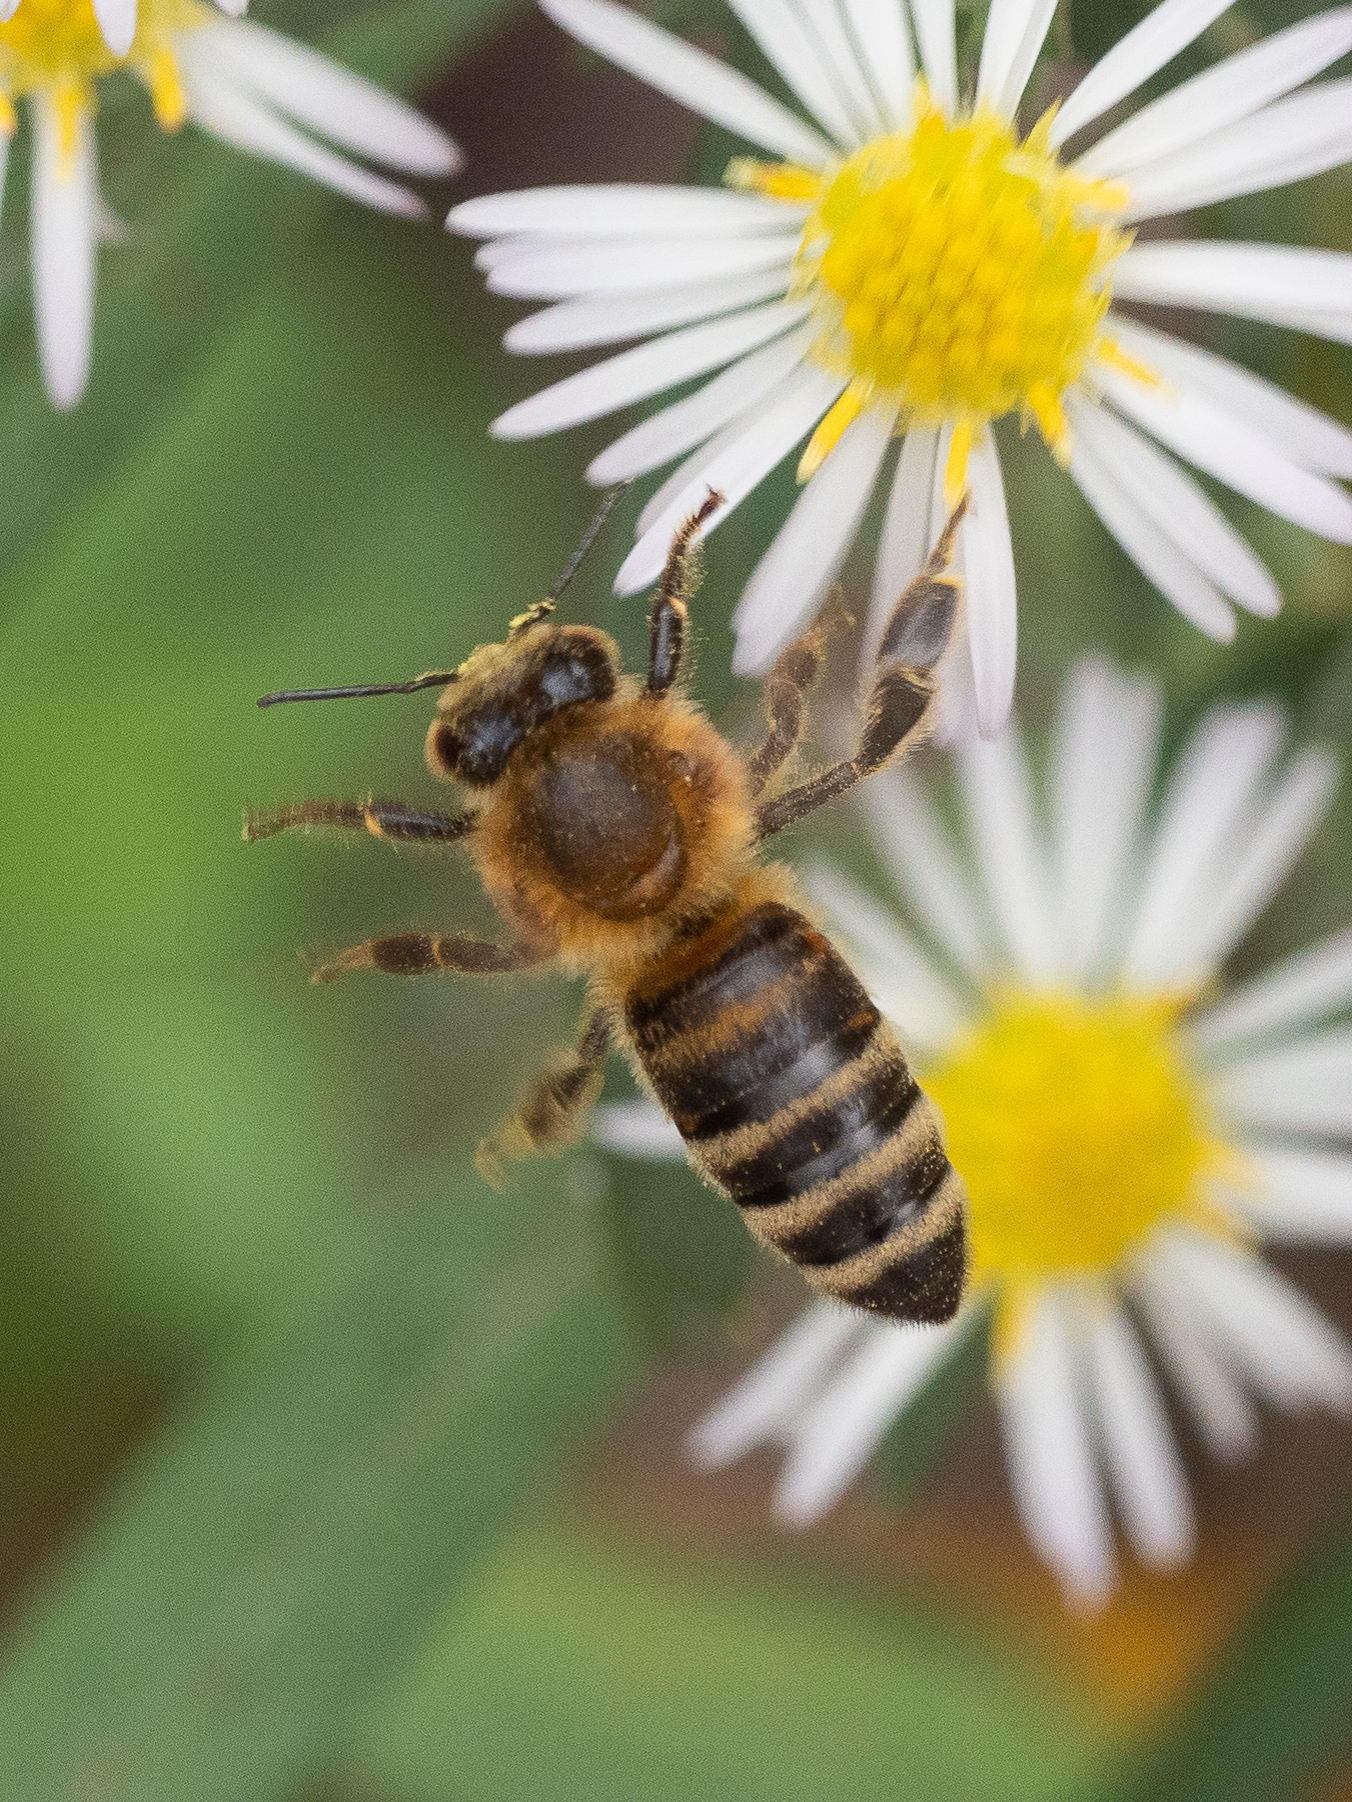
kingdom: Animalia
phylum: Arthropoda
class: Insecta
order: Hymenoptera
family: Apidae
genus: Apis
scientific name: Apis mellifera
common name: Honey bee
